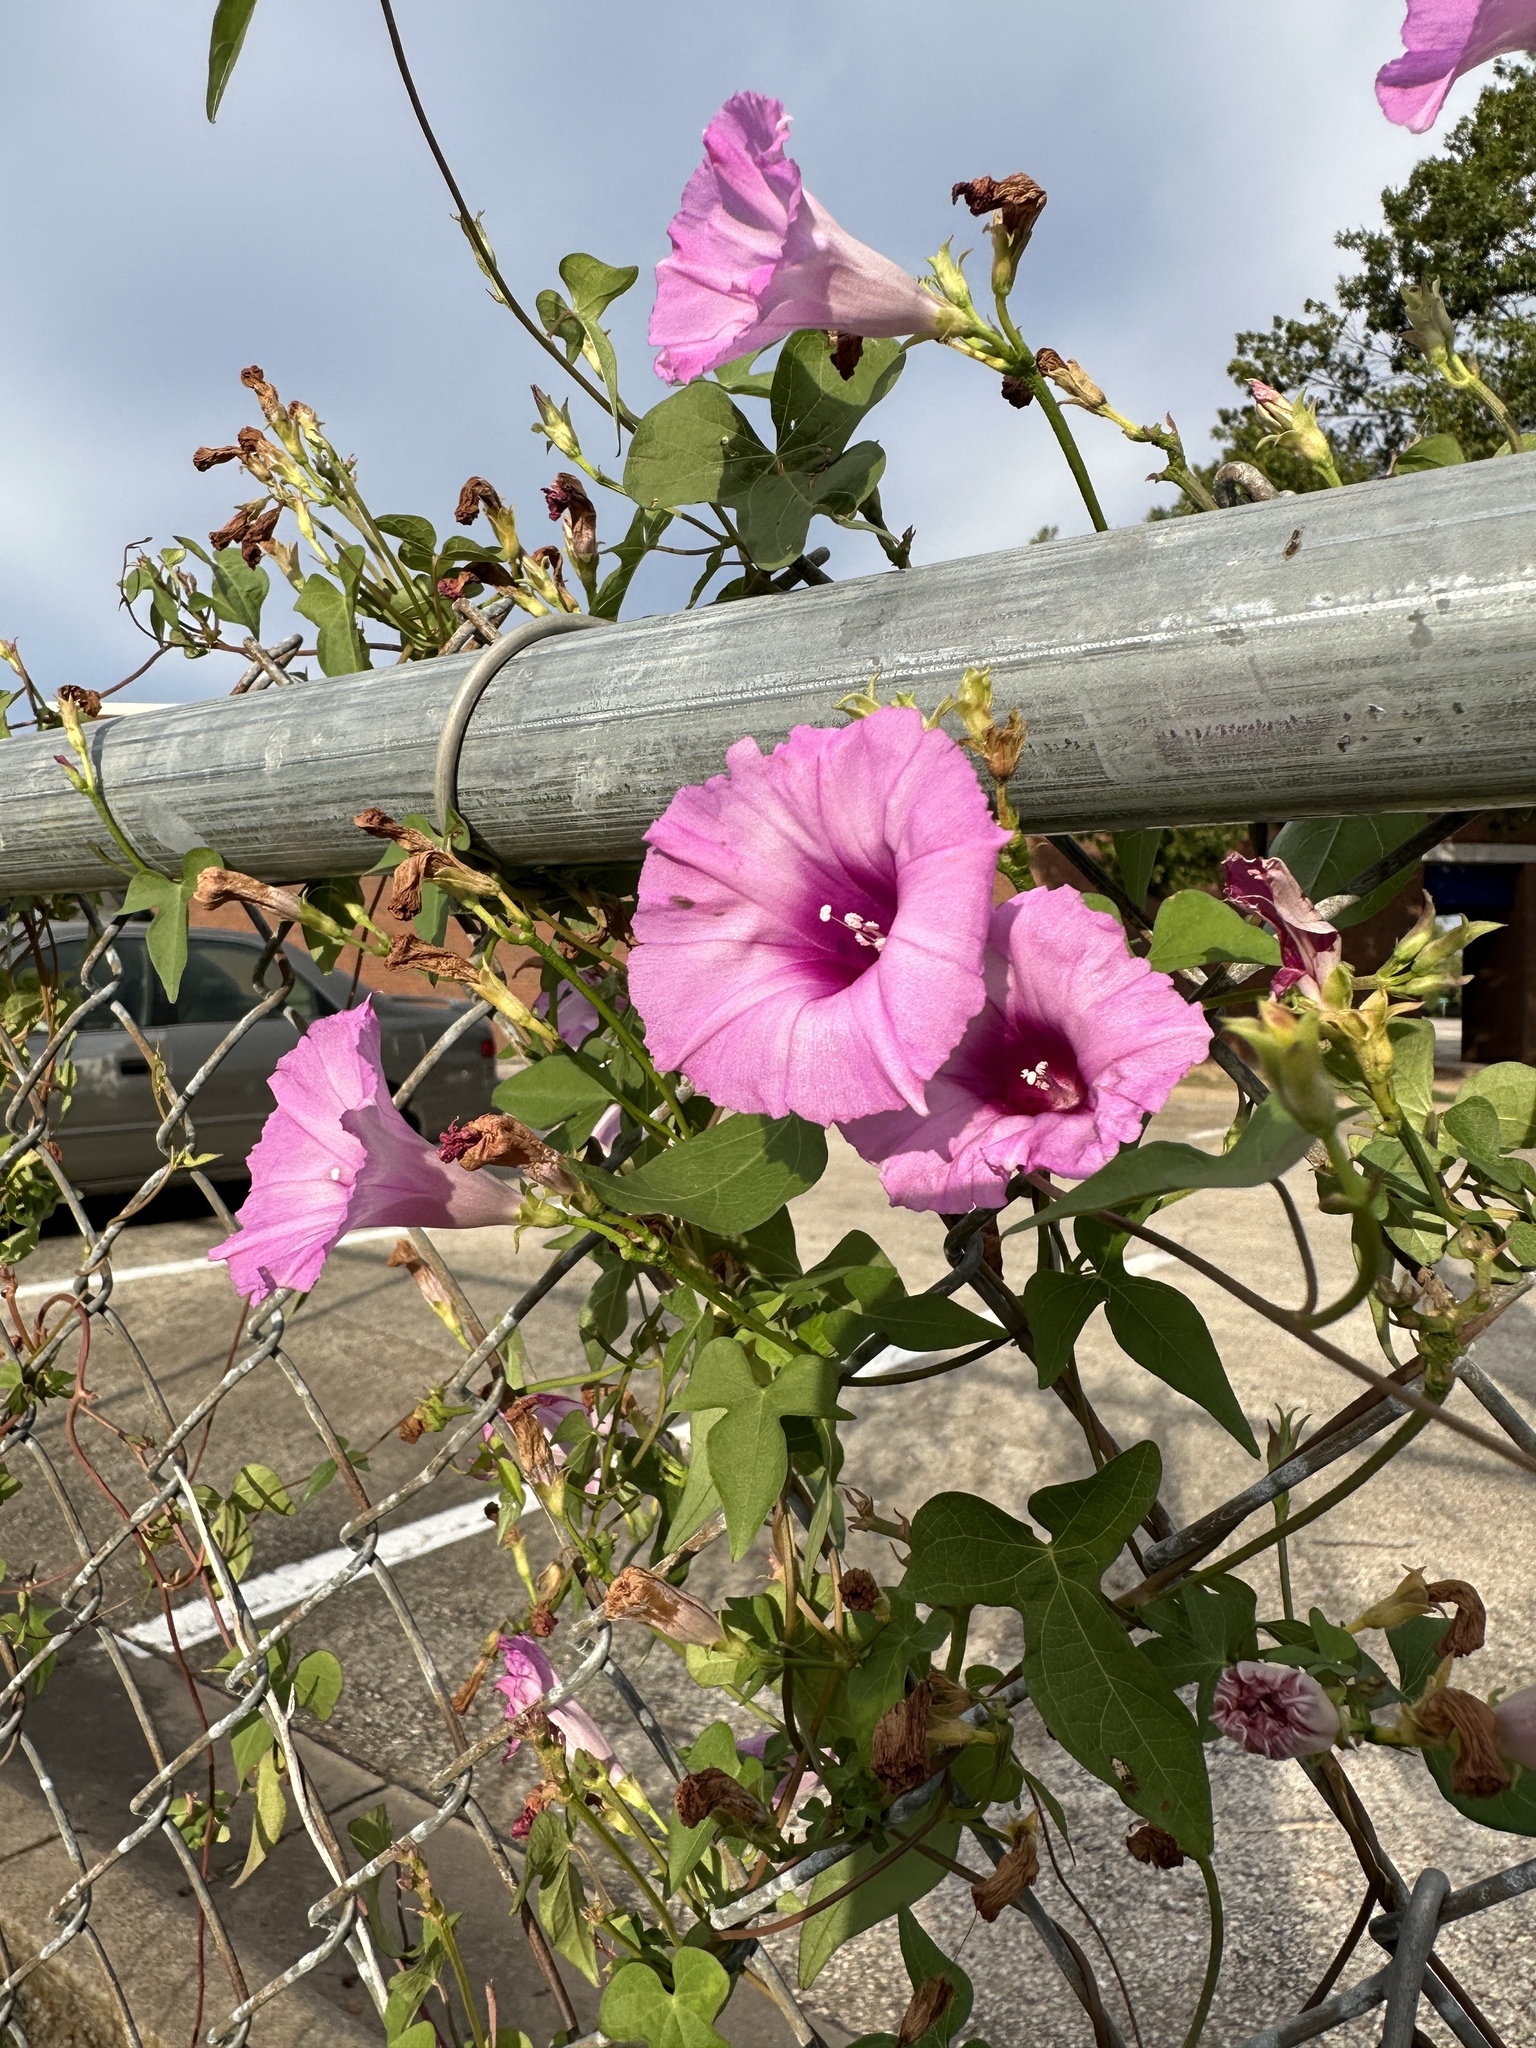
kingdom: Plantae
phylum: Tracheophyta
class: Magnoliopsida
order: Solanales
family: Convolvulaceae
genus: Ipomoea
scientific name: Ipomoea cordatotriloba
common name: Cotton morning glory
